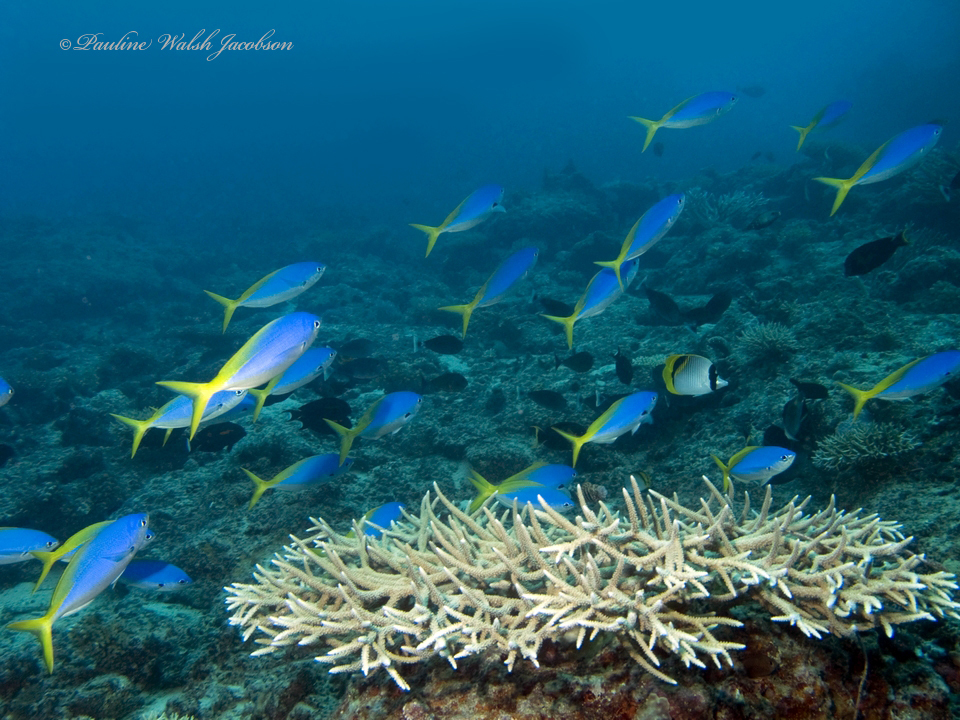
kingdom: Animalia
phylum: Chordata
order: Perciformes
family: Caesionidae
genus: Caesio
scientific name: Caesio teres
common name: Yellow and blueback fusilier
